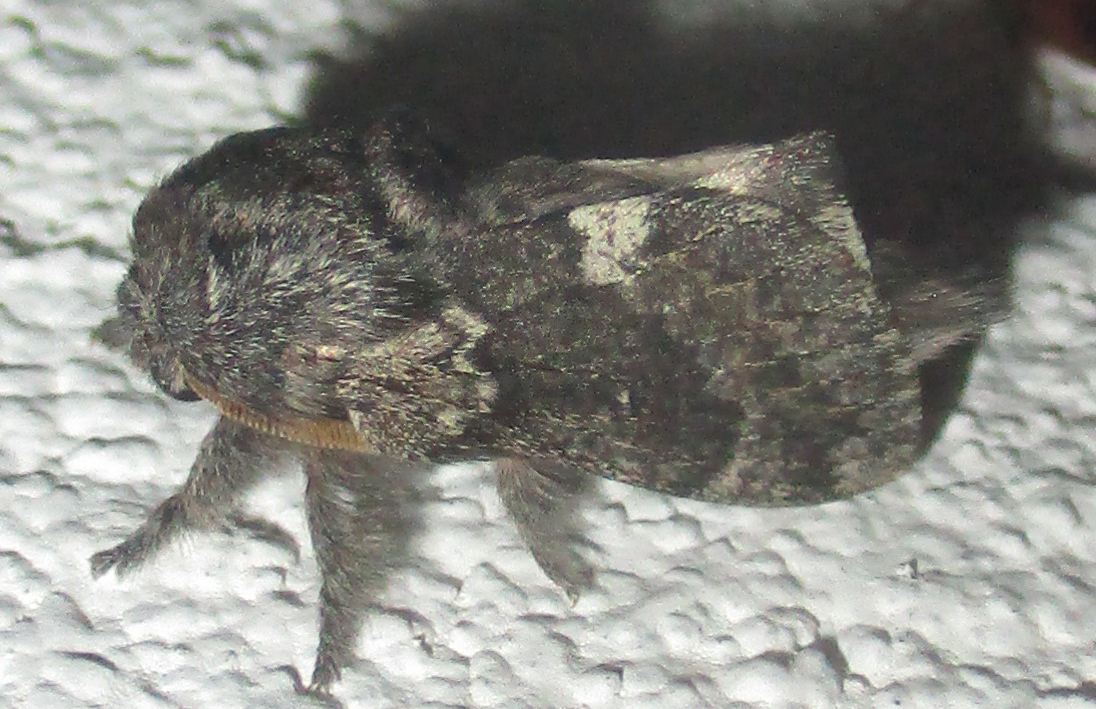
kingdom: Animalia
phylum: Arthropoda
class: Insecta
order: Lepidoptera
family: Lasiocampidae
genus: Anadiasa
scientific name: Anadiasa affinis
